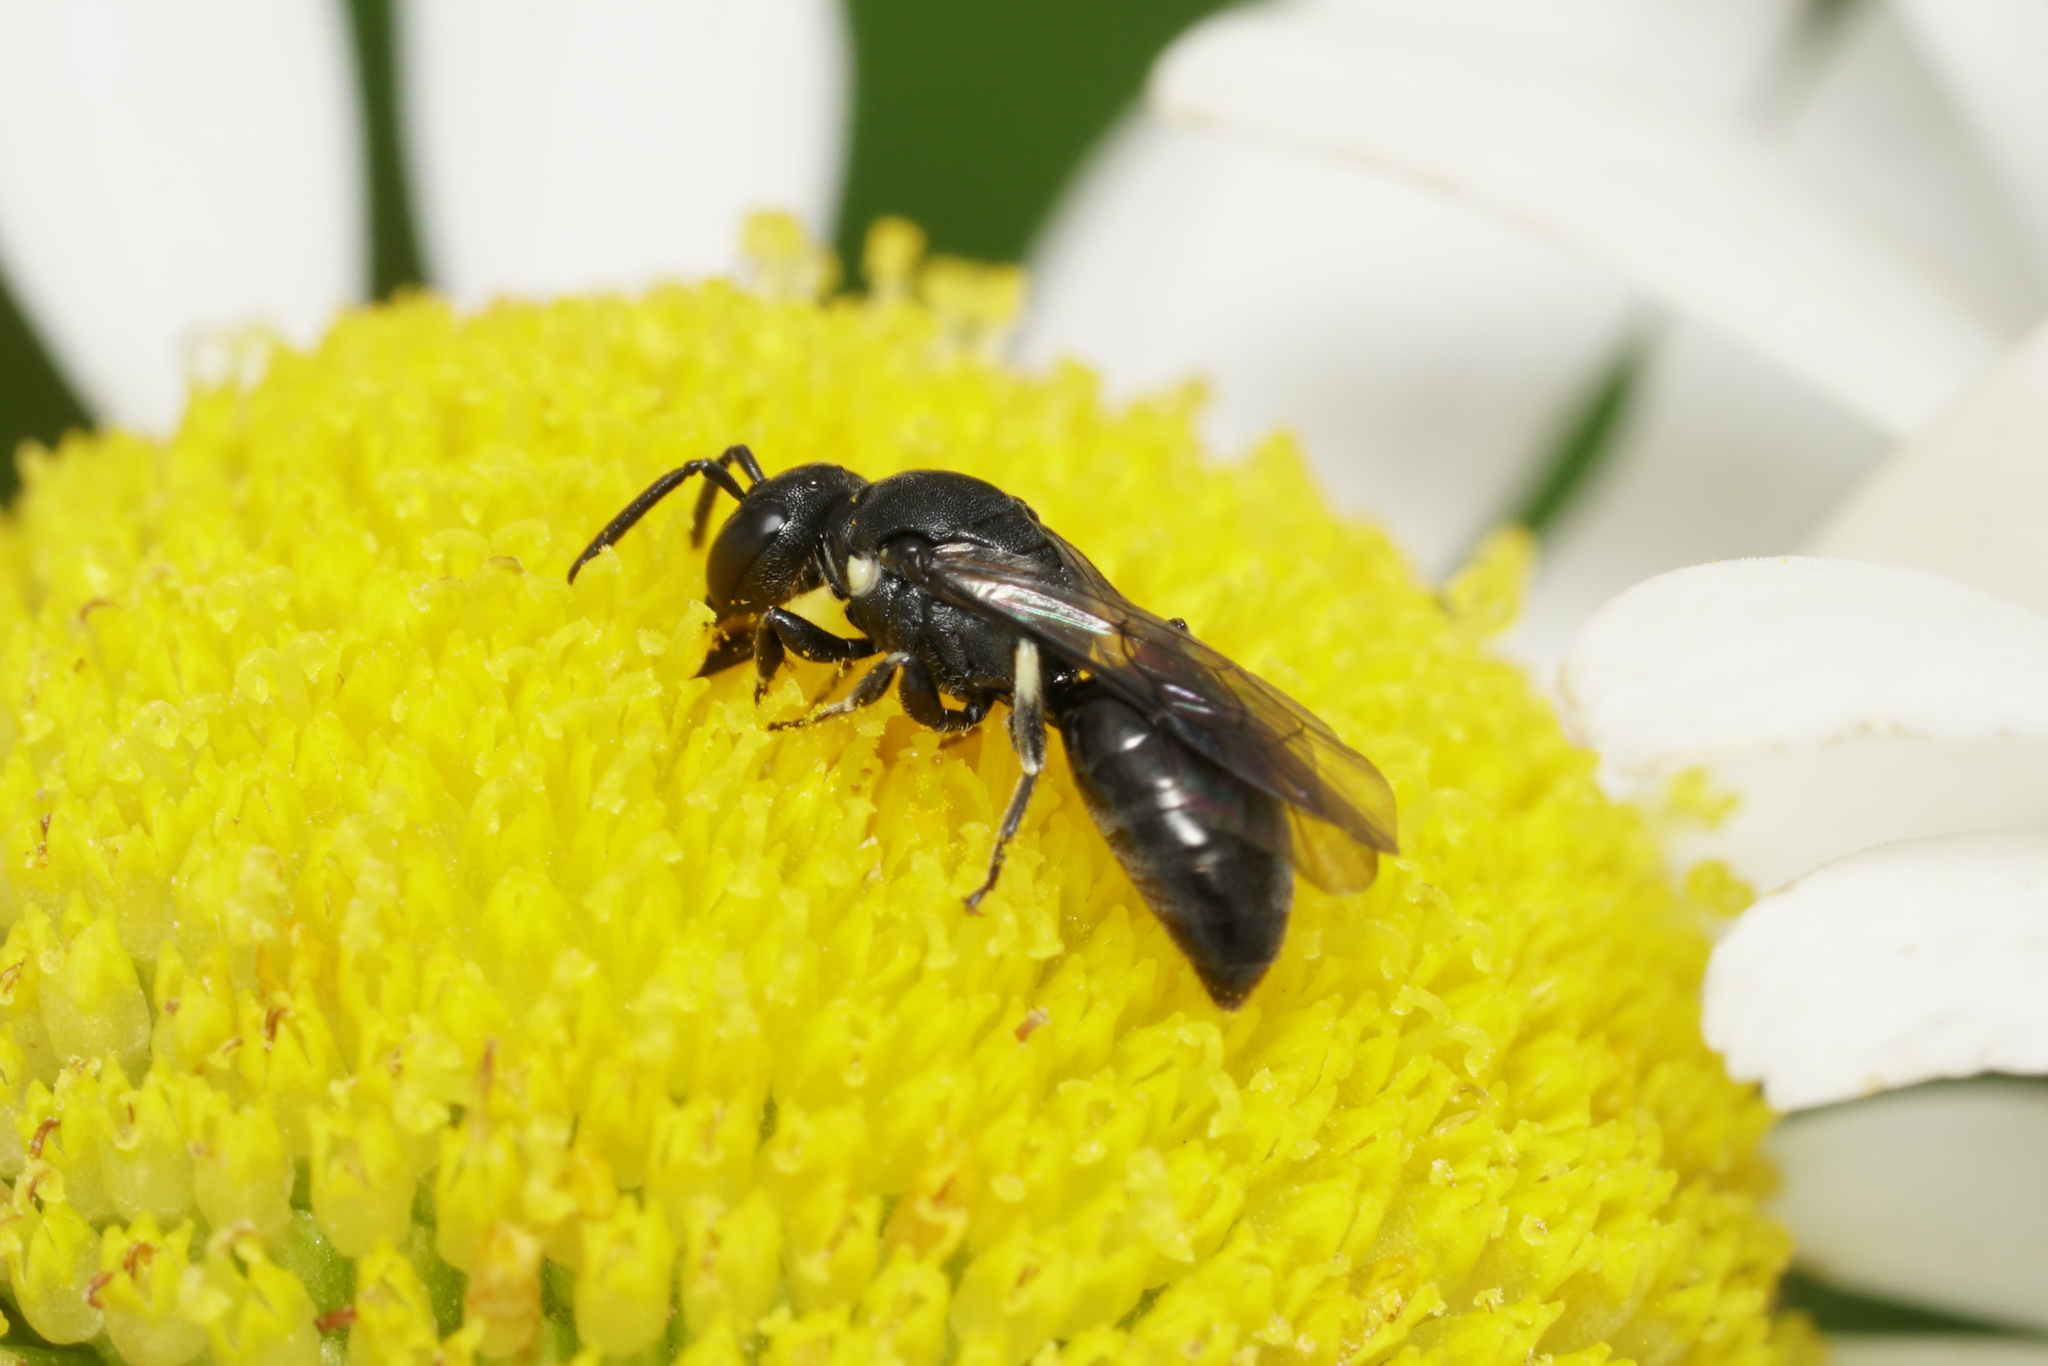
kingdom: Animalia
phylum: Arthropoda
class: Insecta
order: Hymenoptera
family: Colletidae
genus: Hylaeus
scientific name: Hylaeus
